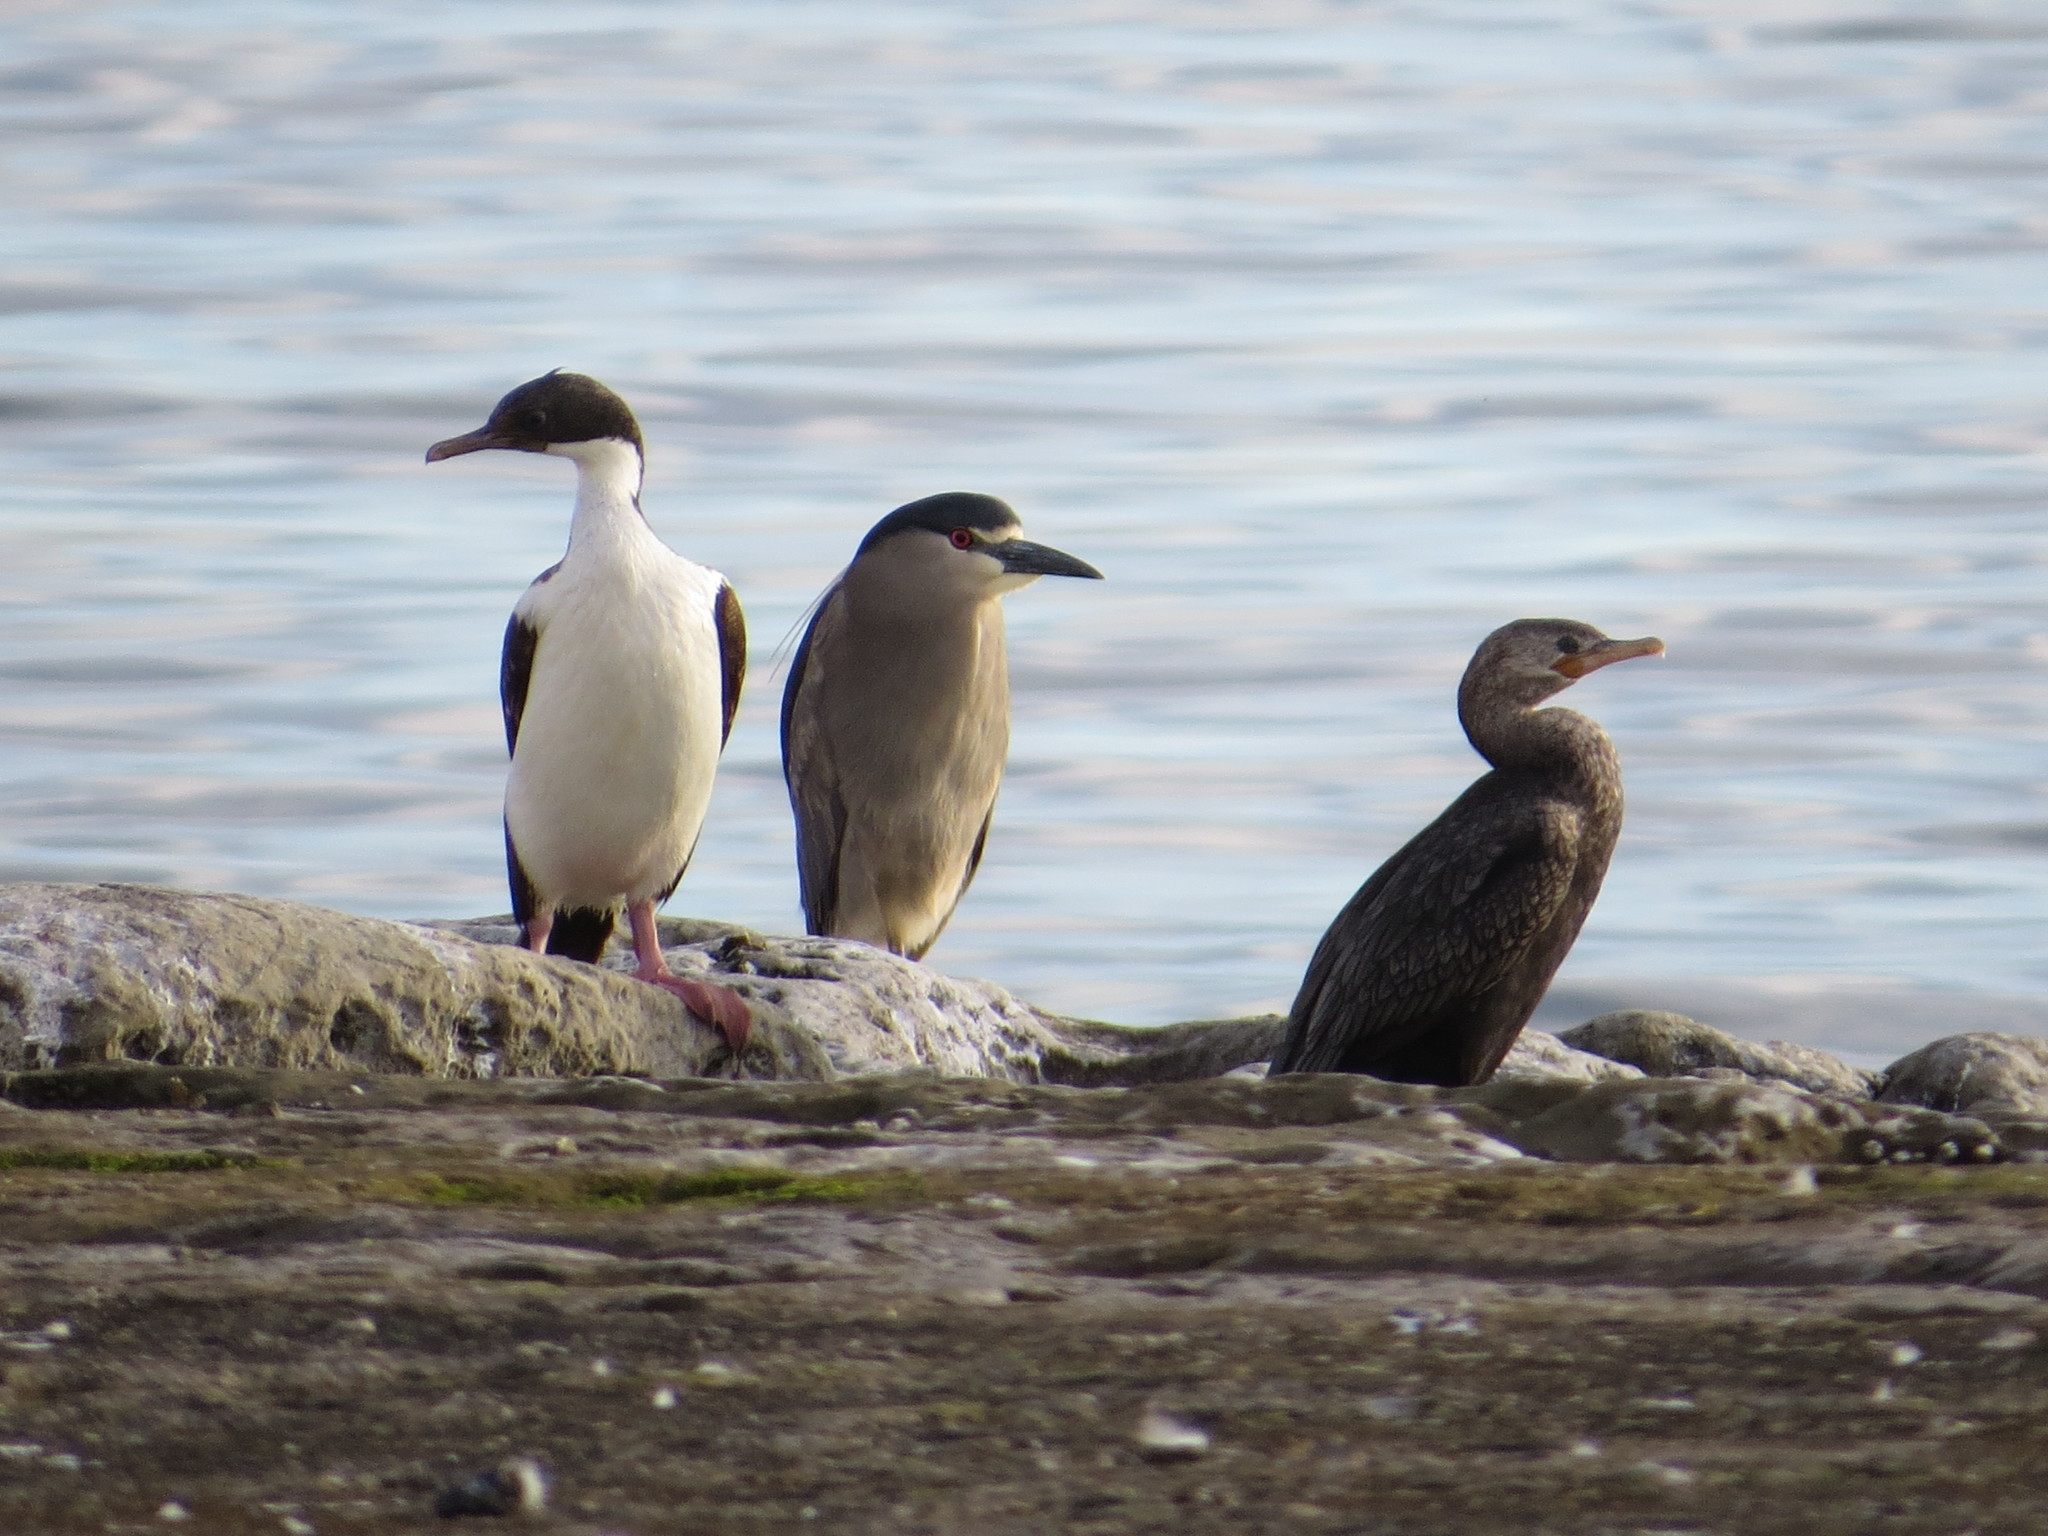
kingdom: Animalia
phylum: Chordata
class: Aves
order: Pelecaniformes
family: Ardeidae
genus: Nycticorax
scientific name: Nycticorax nycticorax
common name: Black-crowned night heron
